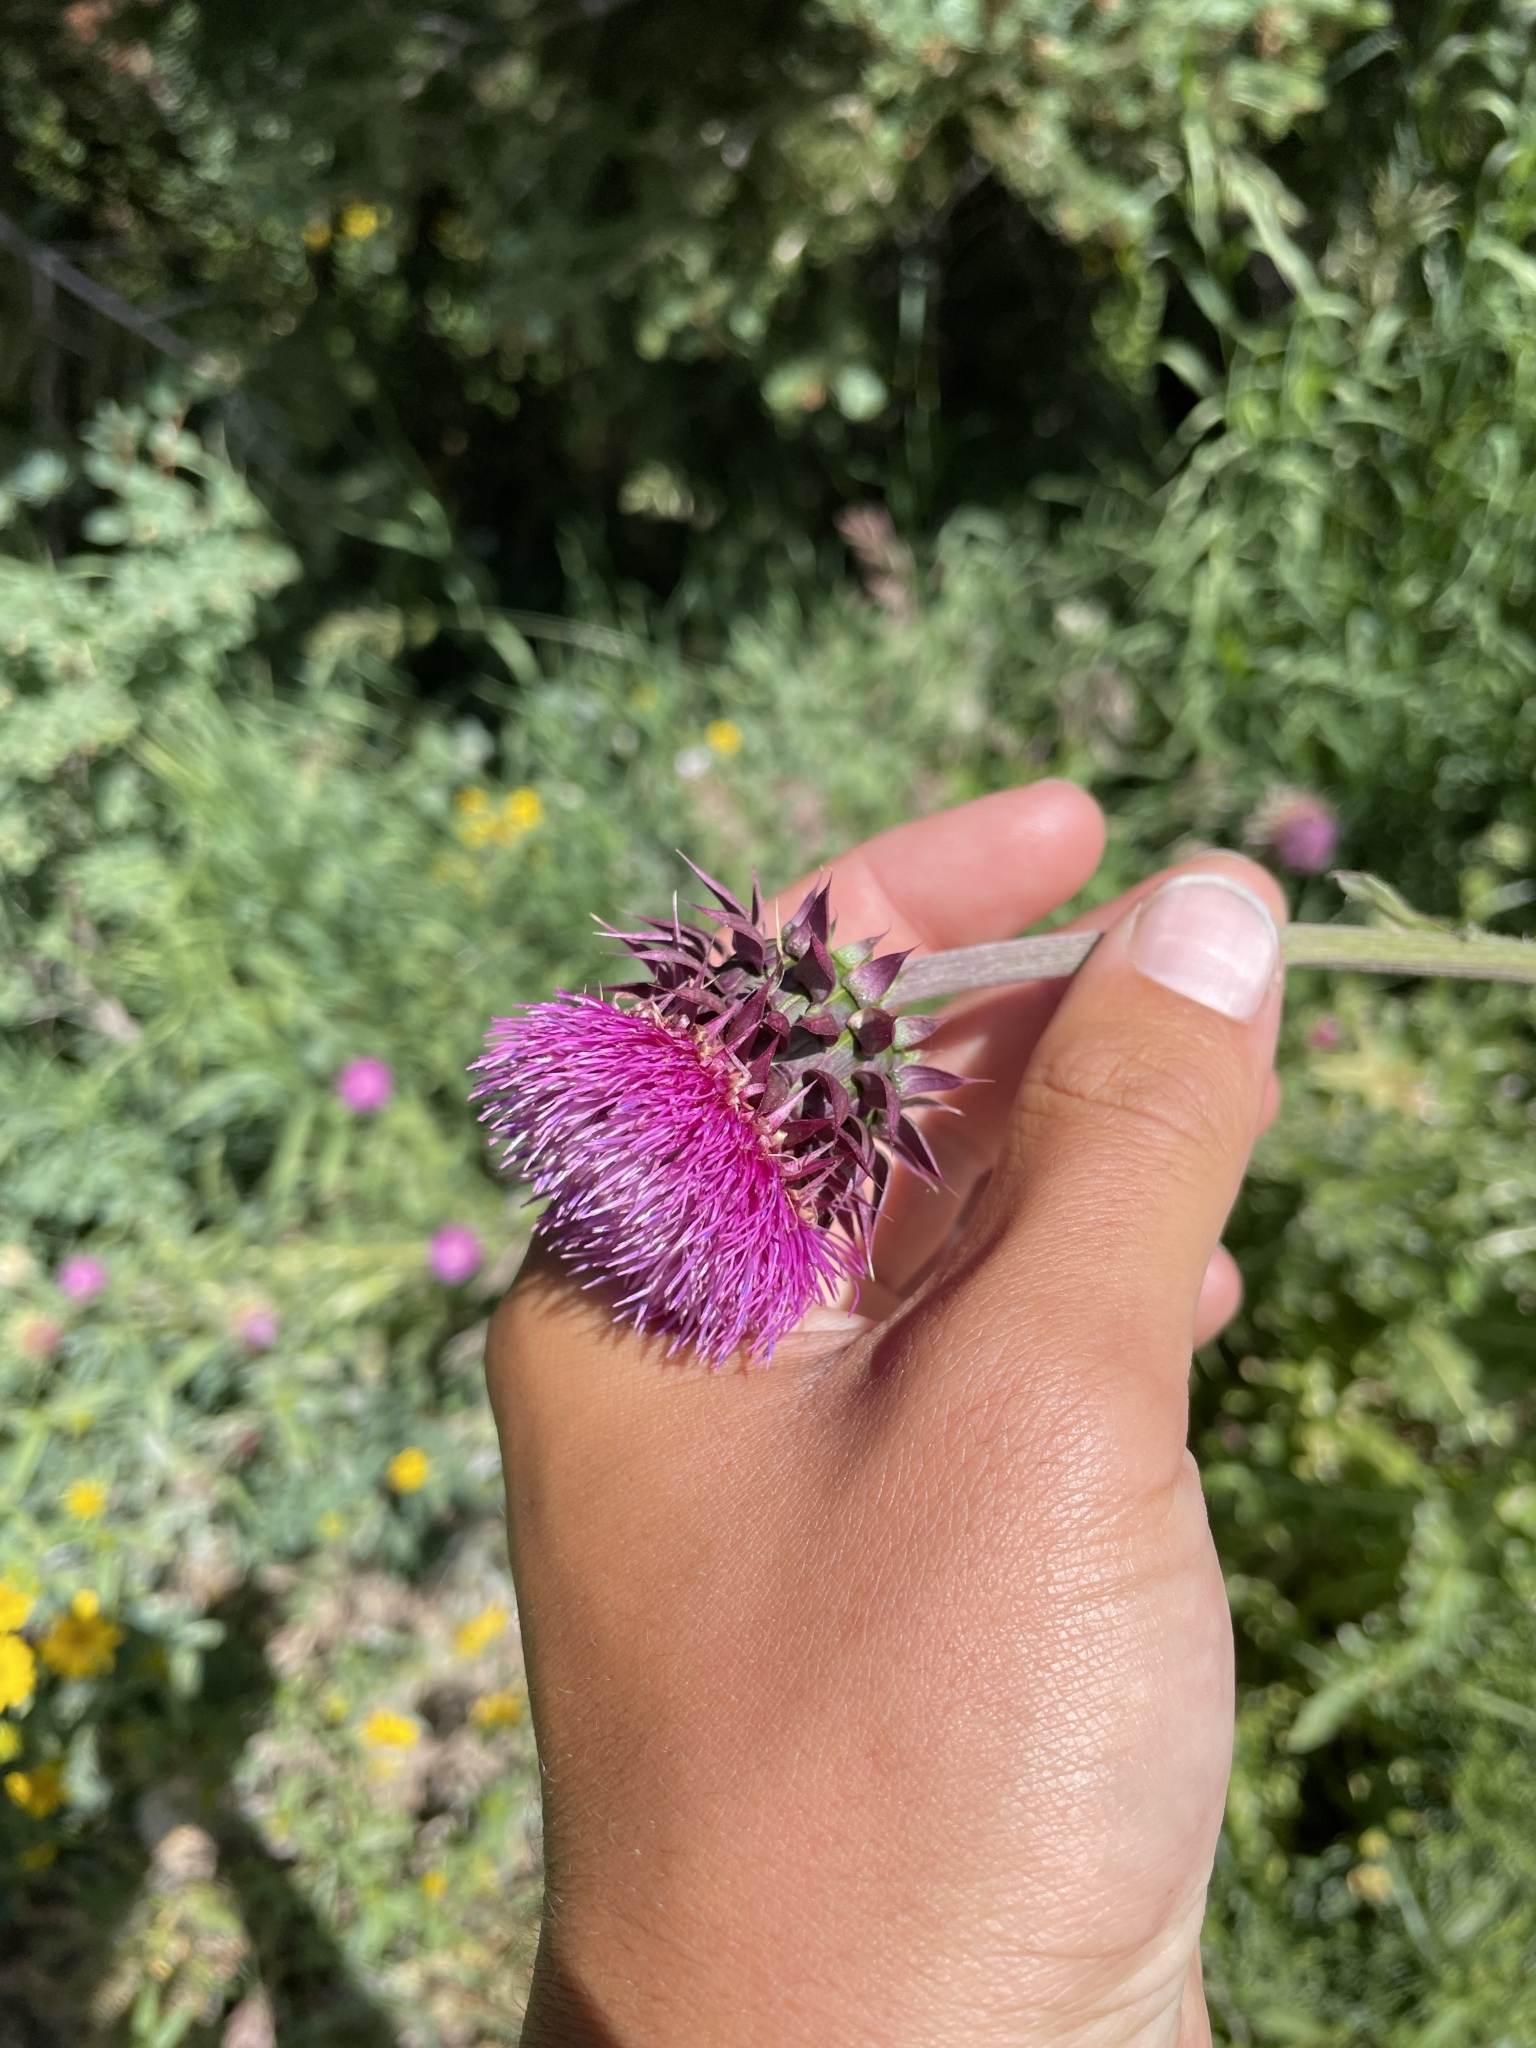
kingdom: Plantae
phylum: Tracheophyta
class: Magnoliopsida
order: Asterales
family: Asteraceae
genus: Carduus
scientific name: Carduus nutans
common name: Musk thistle
